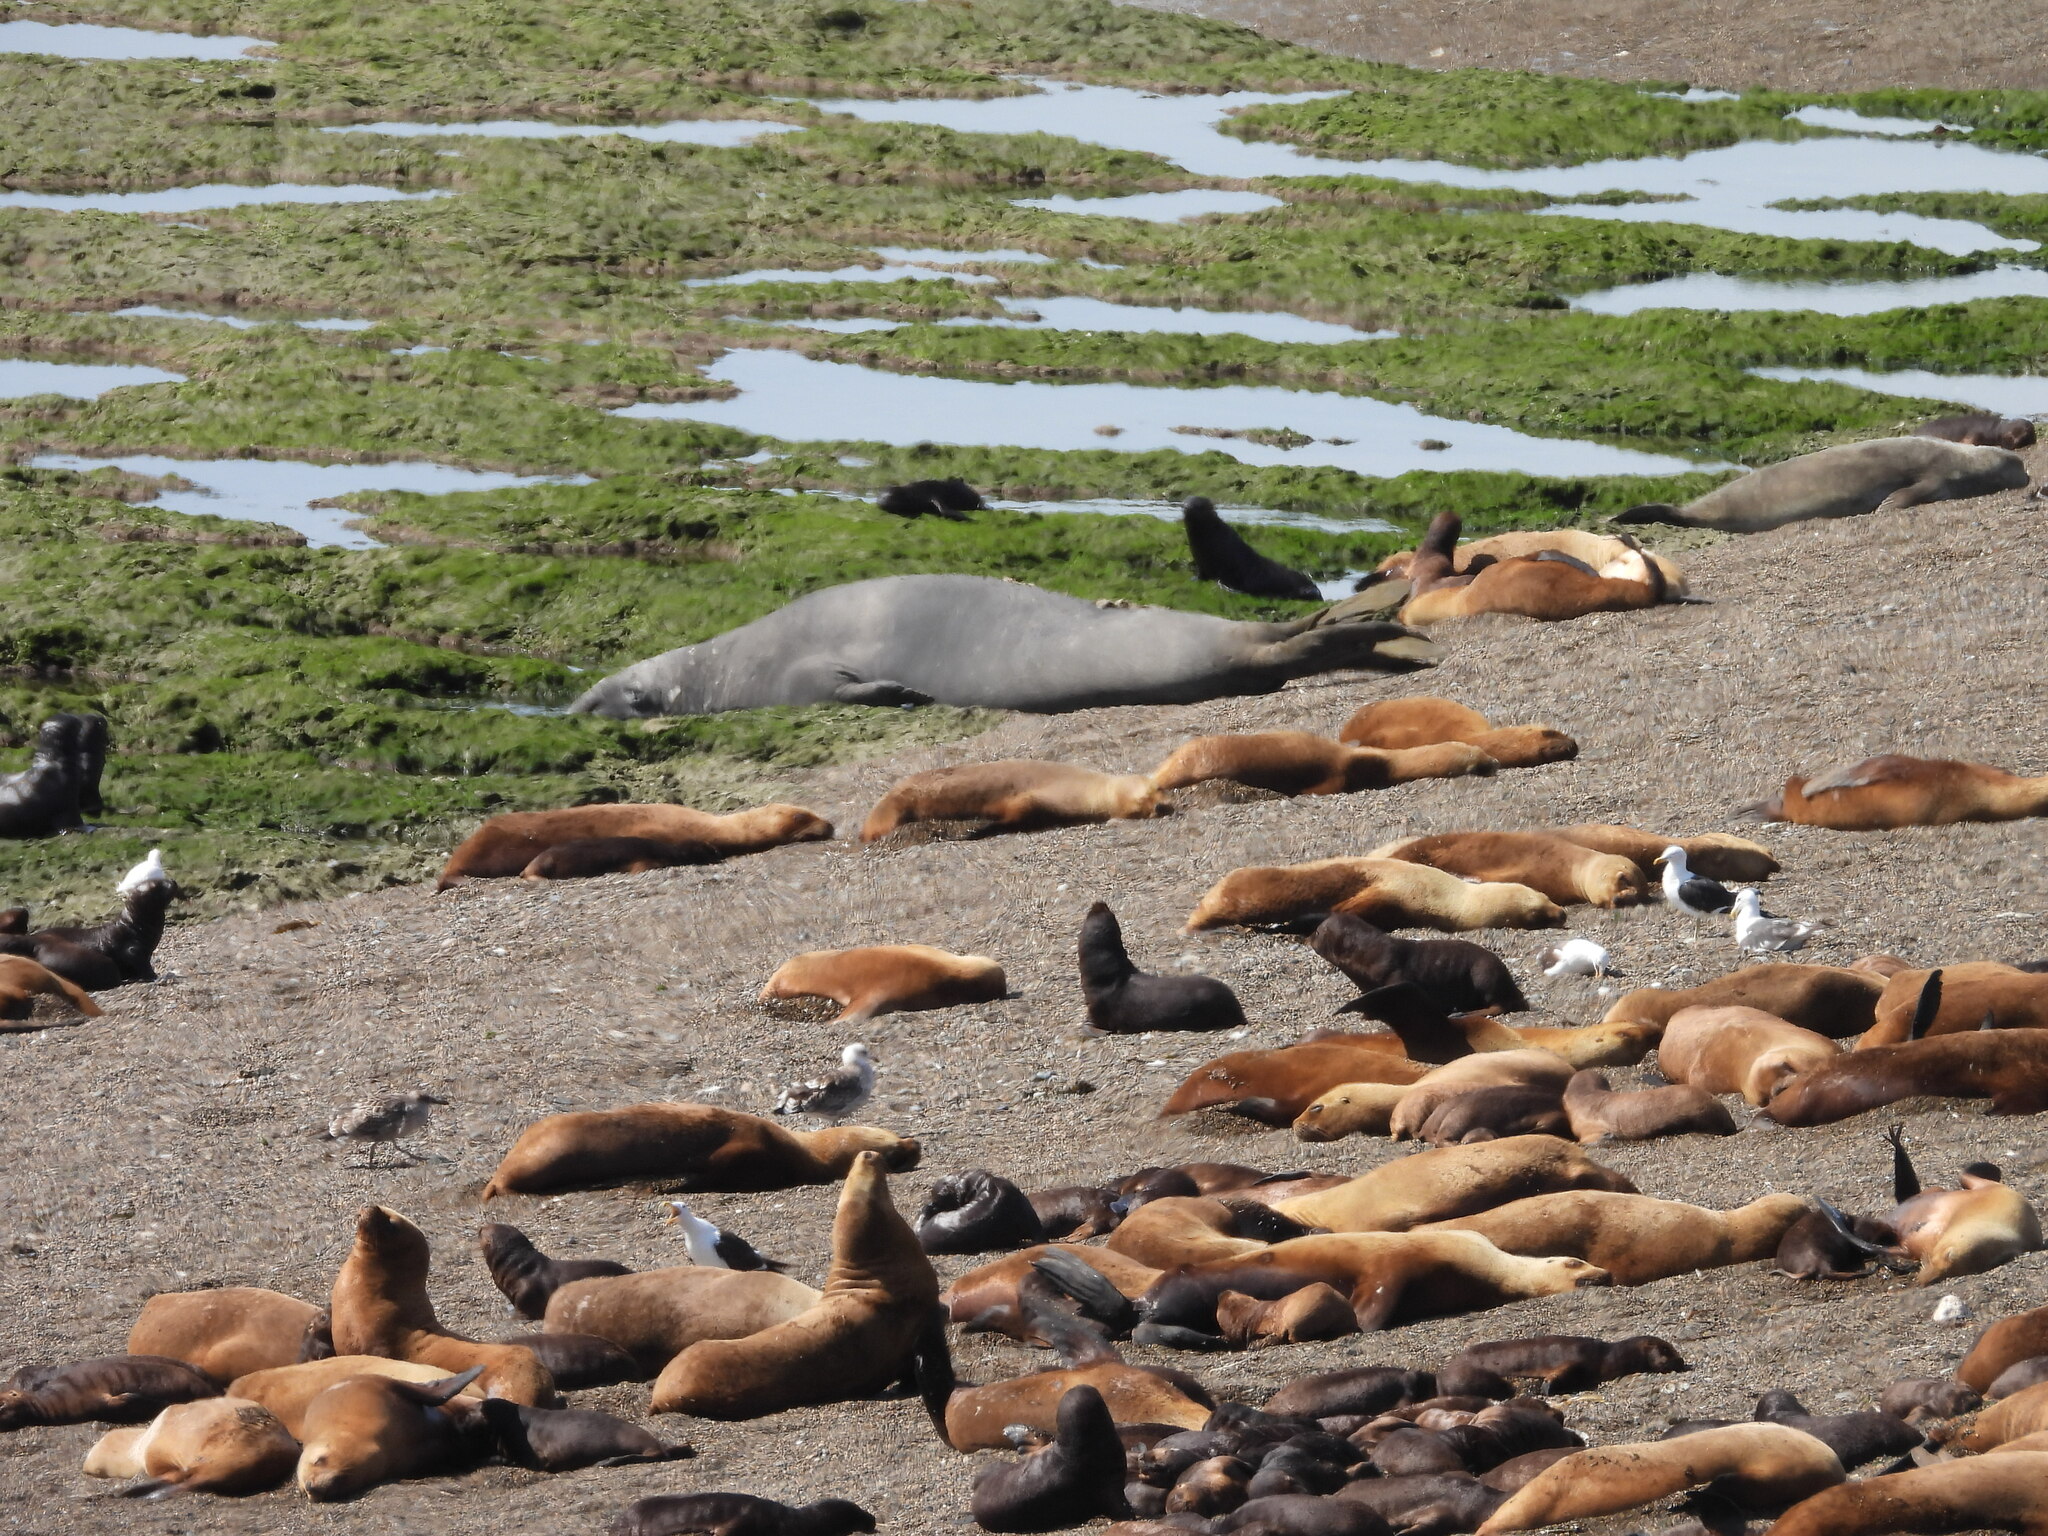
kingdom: Animalia
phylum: Chordata
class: Mammalia
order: Carnivora
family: Phocidae
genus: Mirounga
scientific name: Mirounga leonina
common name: Southern elephant seal
